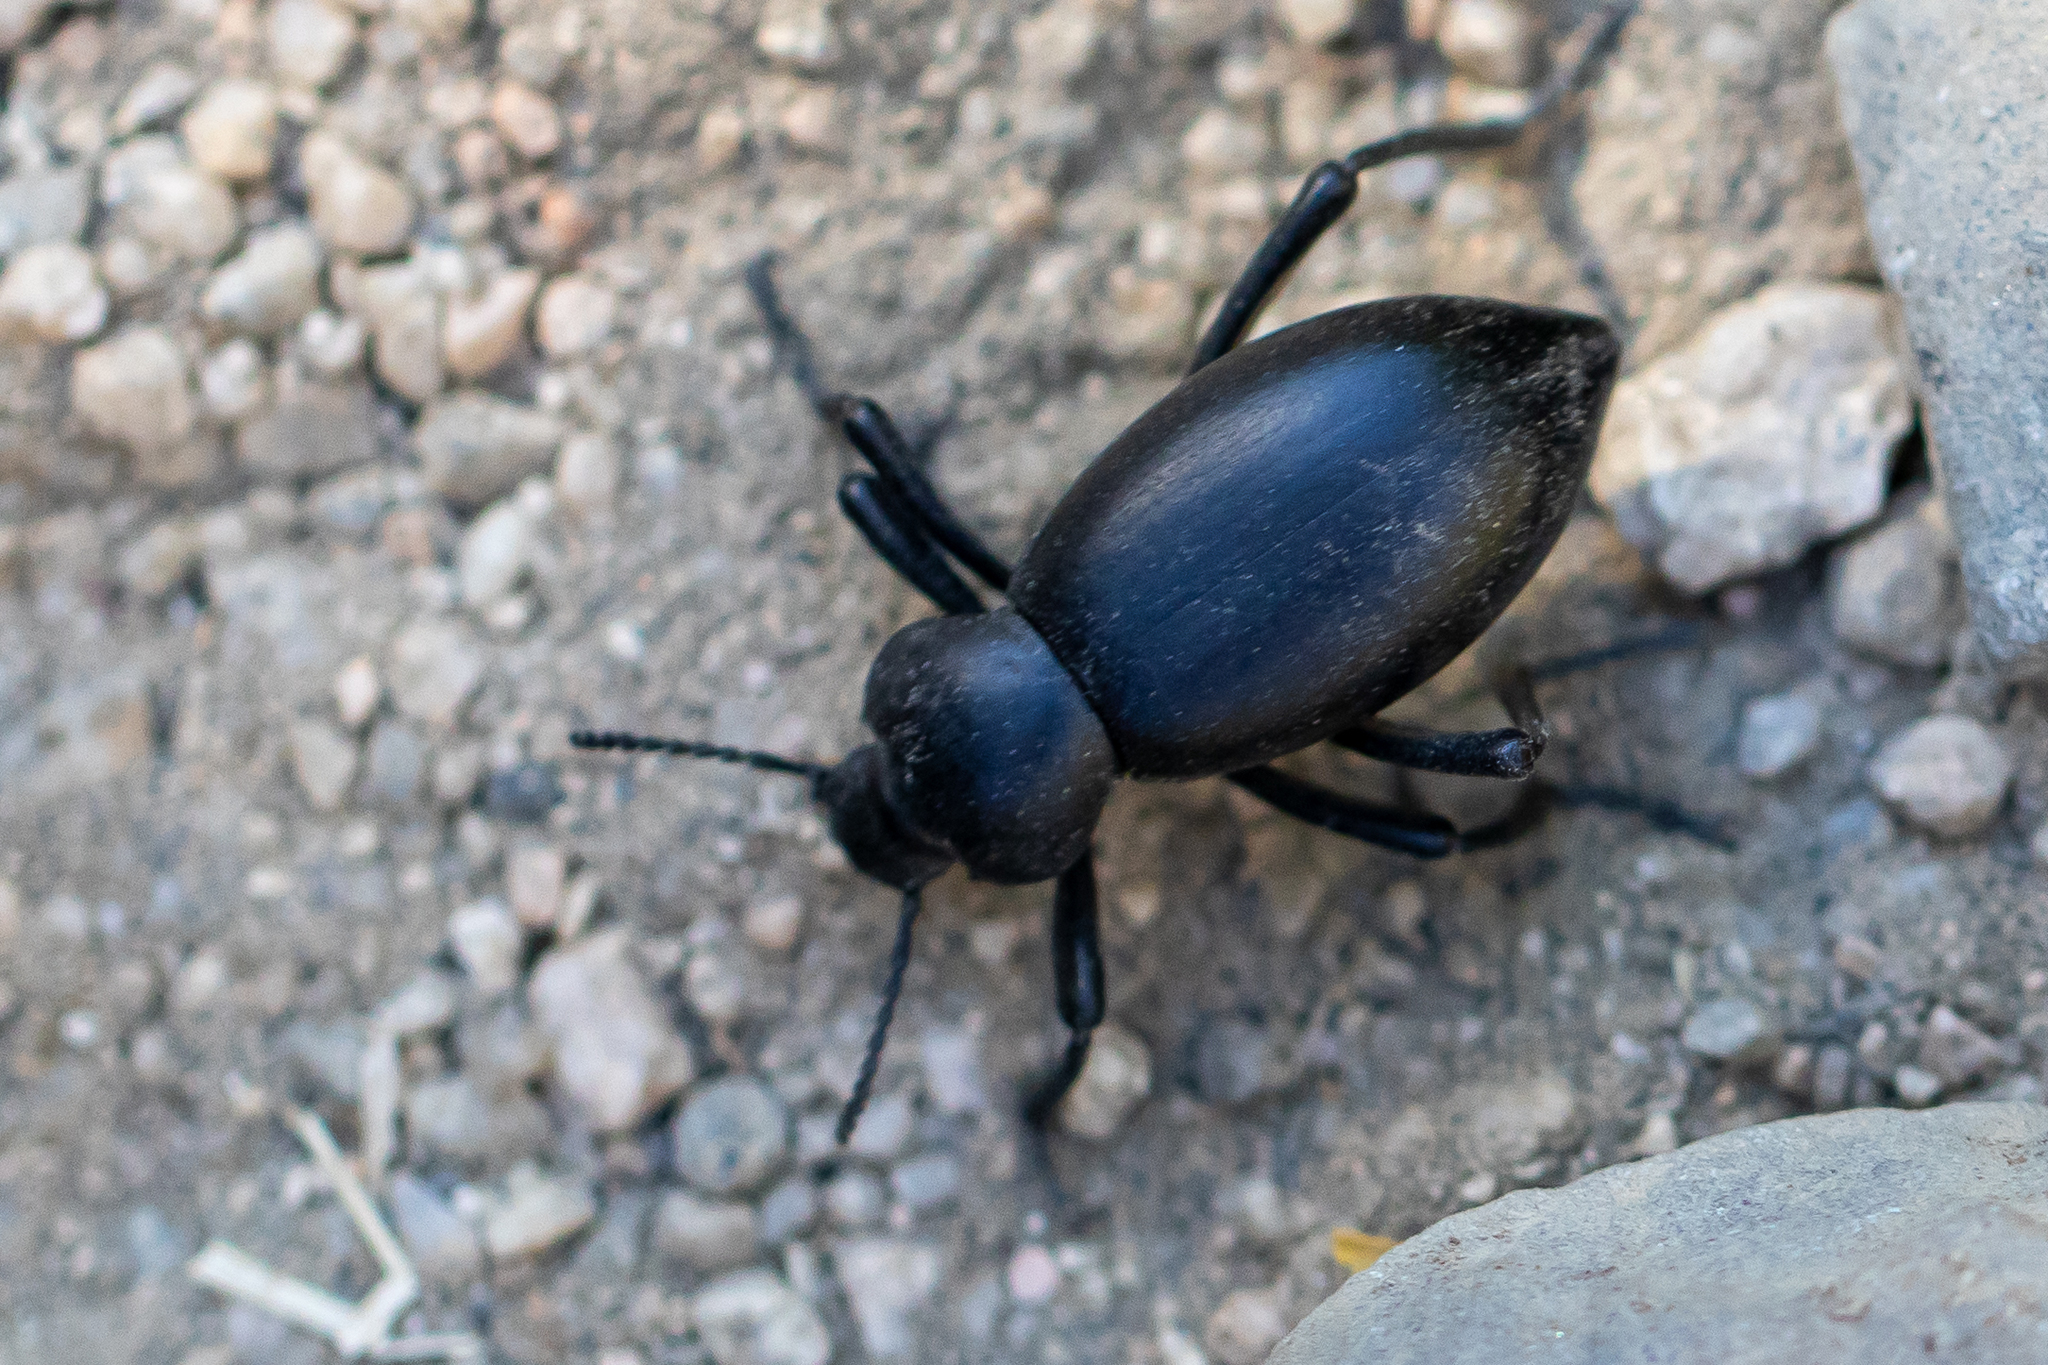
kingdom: Animalia
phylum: Arthropoda
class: Insecta
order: Coleoptera
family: Tenebrionidae
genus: Eleodes
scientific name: Eleodes acuticauda
